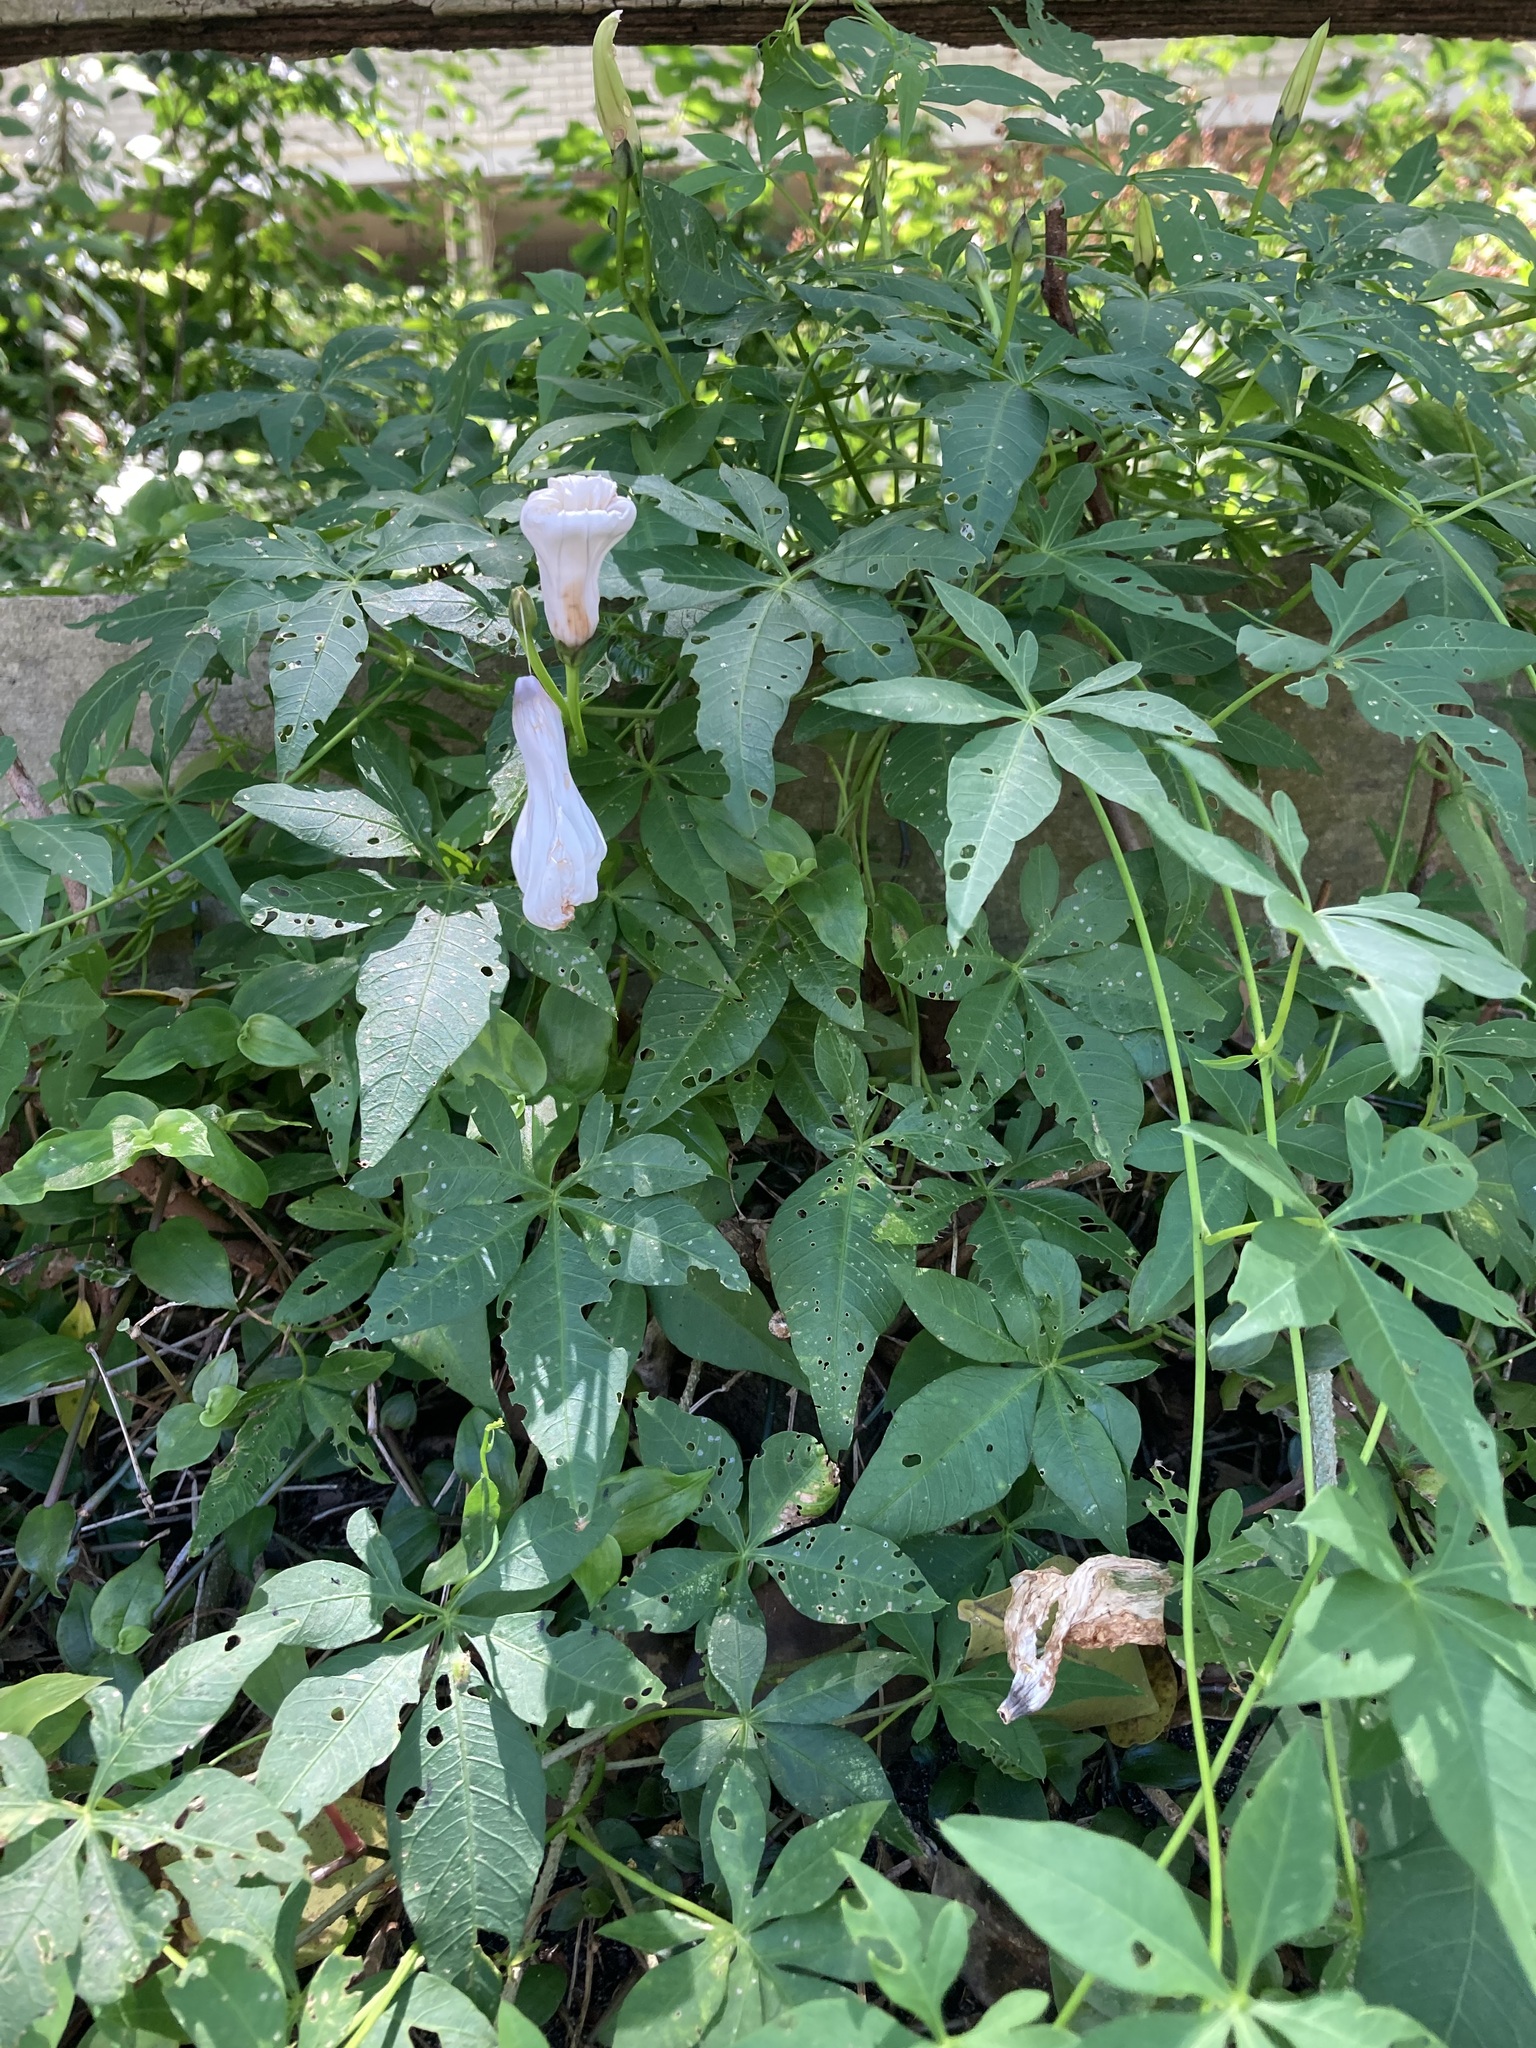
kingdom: Plantae
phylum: Tracheophyta
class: Magnoliopsida
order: Solanales
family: Convolvulaceae
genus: Ipomoea
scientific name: Ipomoea cairica
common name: Mile a minute vine
